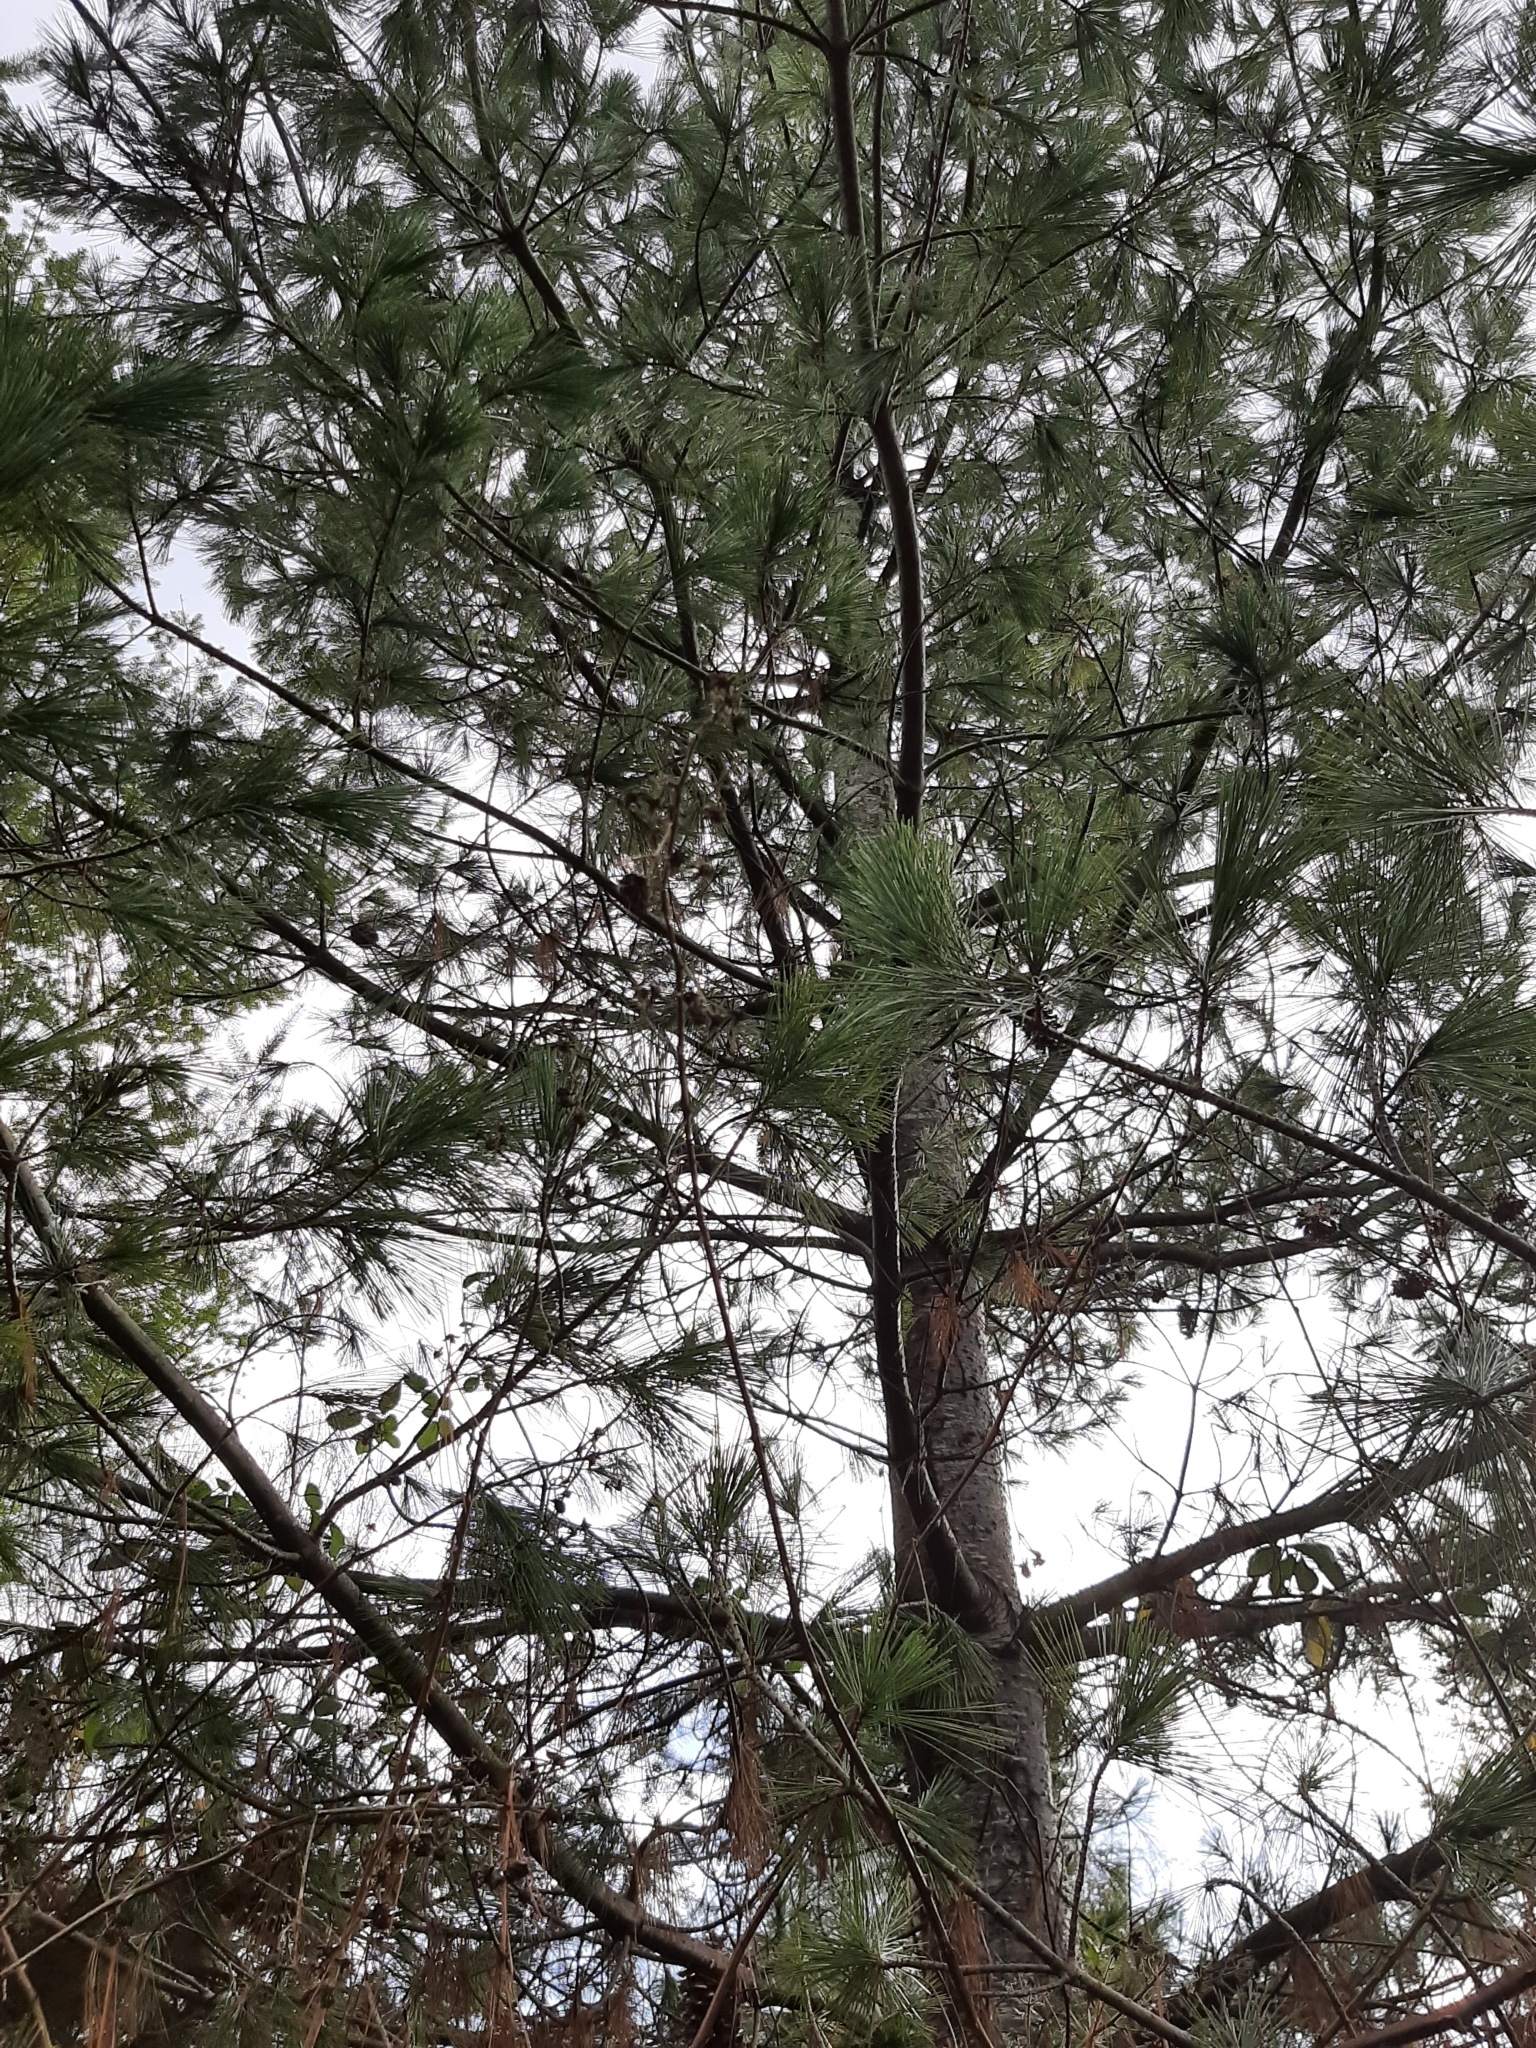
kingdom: Plantae
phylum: Tracheophyta
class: Pinopsida
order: Pinales
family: Pinaceae
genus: Pinus
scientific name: Pinus monticola
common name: Western white pine
